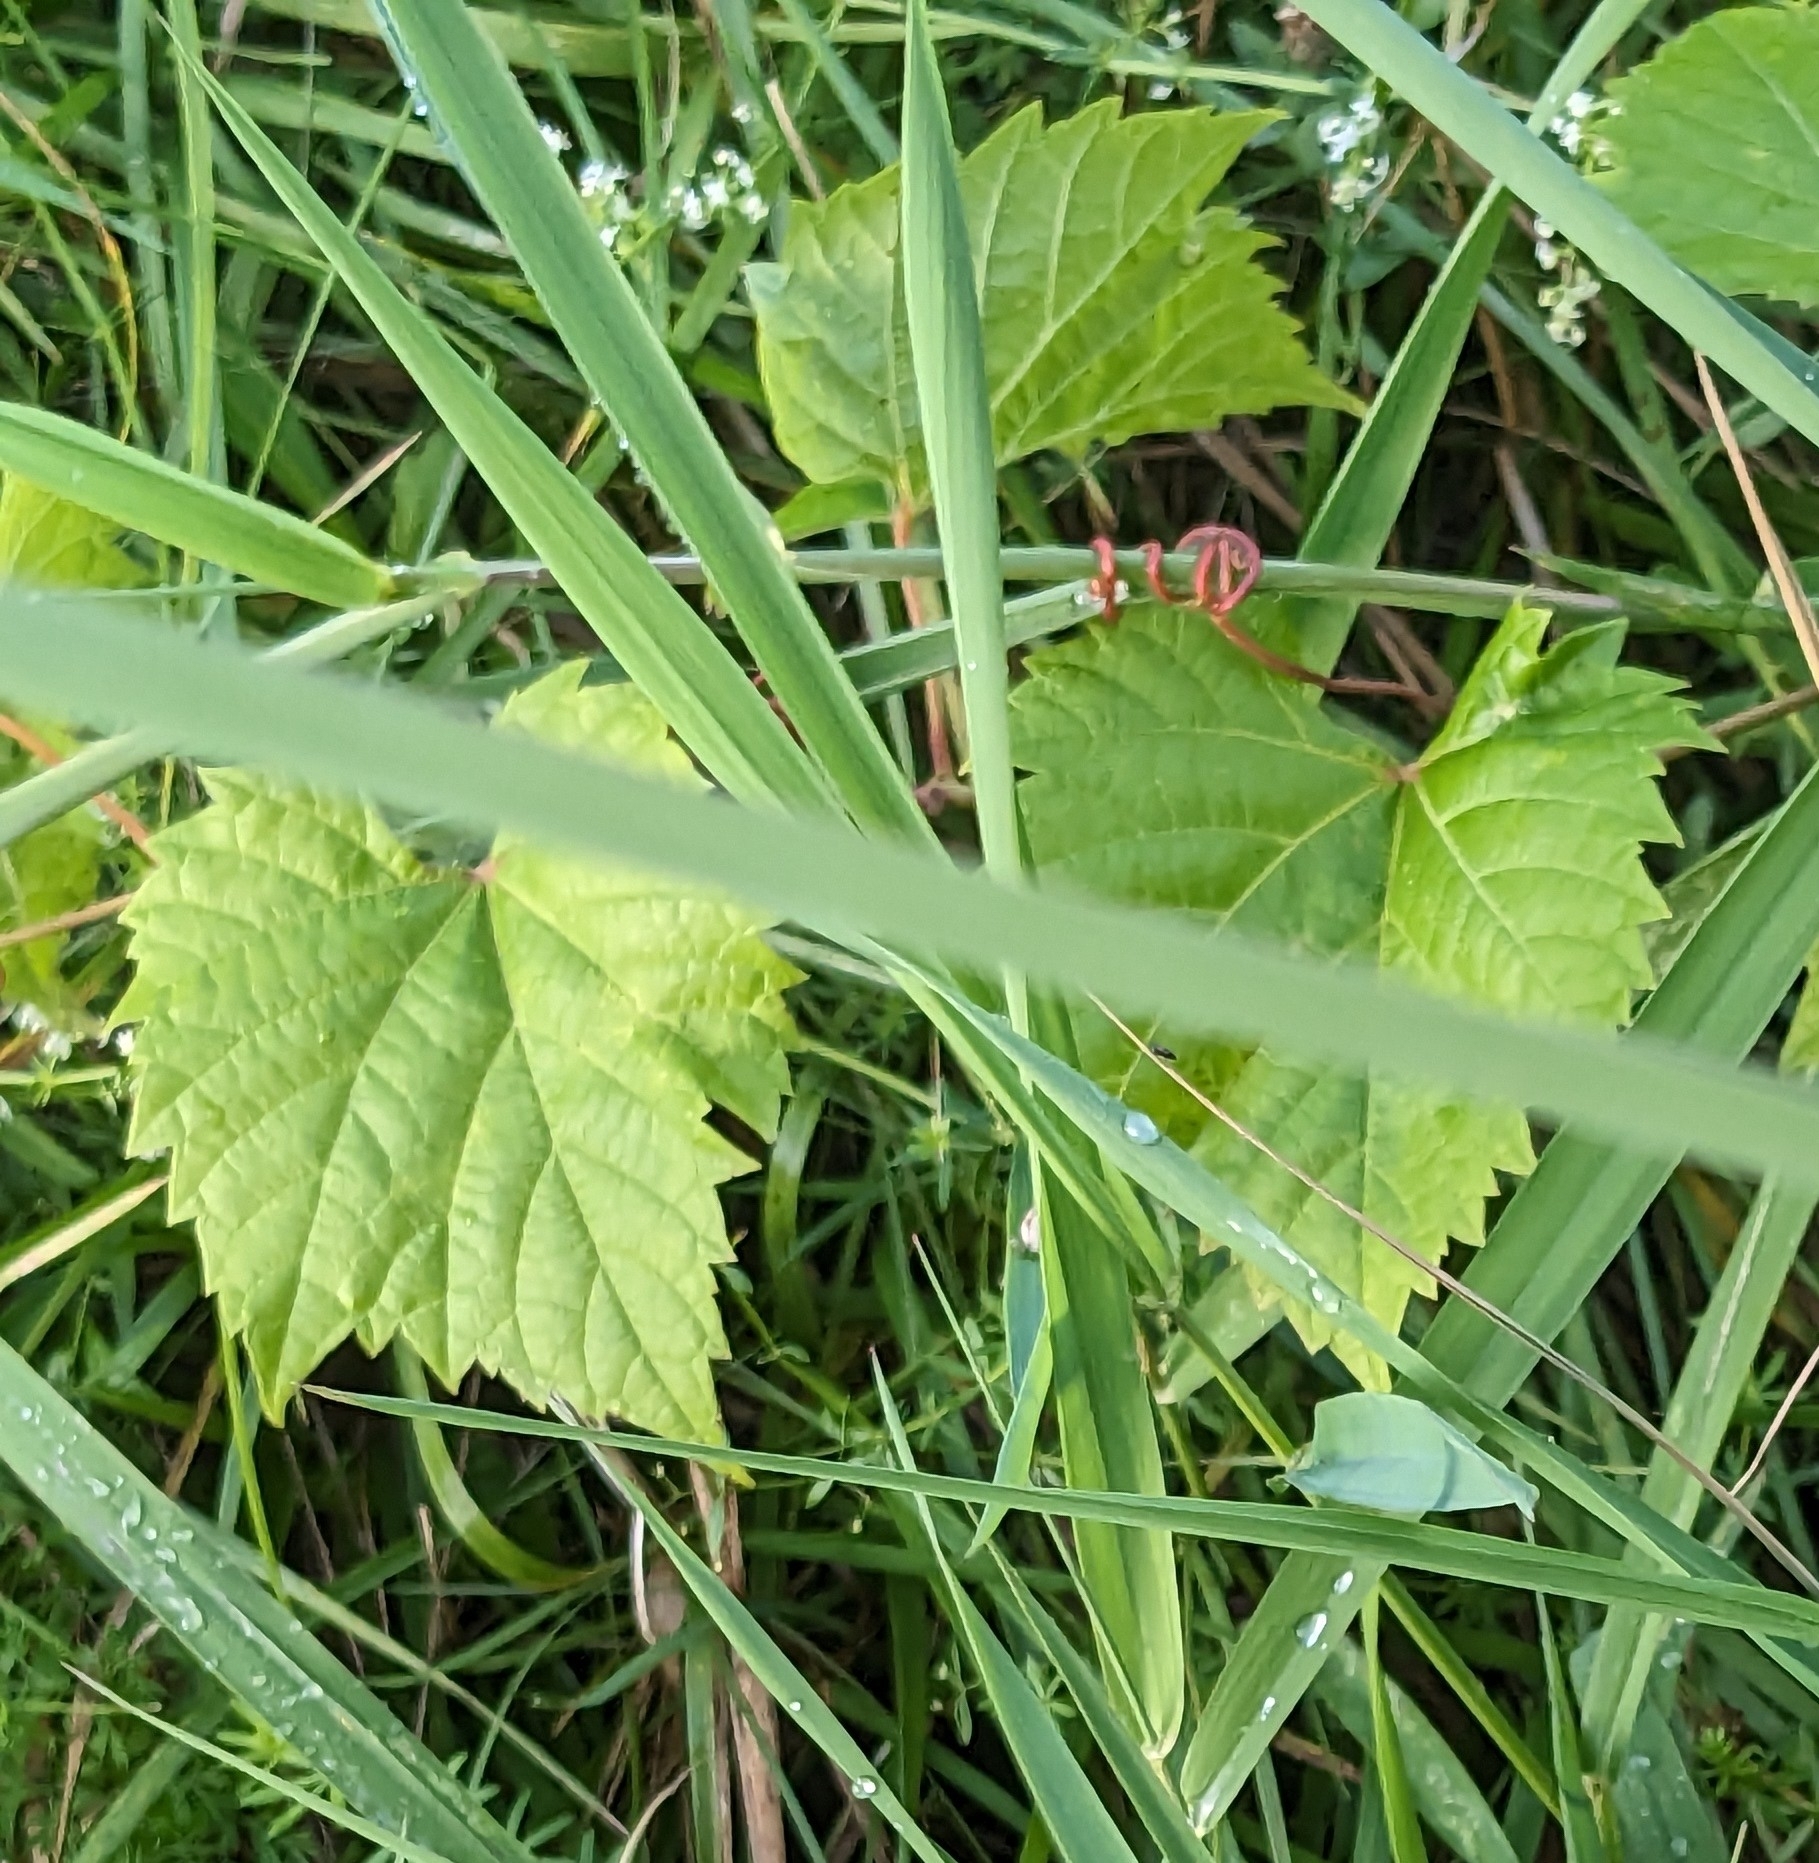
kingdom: Plantae
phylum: Tracheophyta
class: Magnoliopsida
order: Vitales
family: Vitaceae
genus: Vitis
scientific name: Vitis riparia
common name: Frost grape
